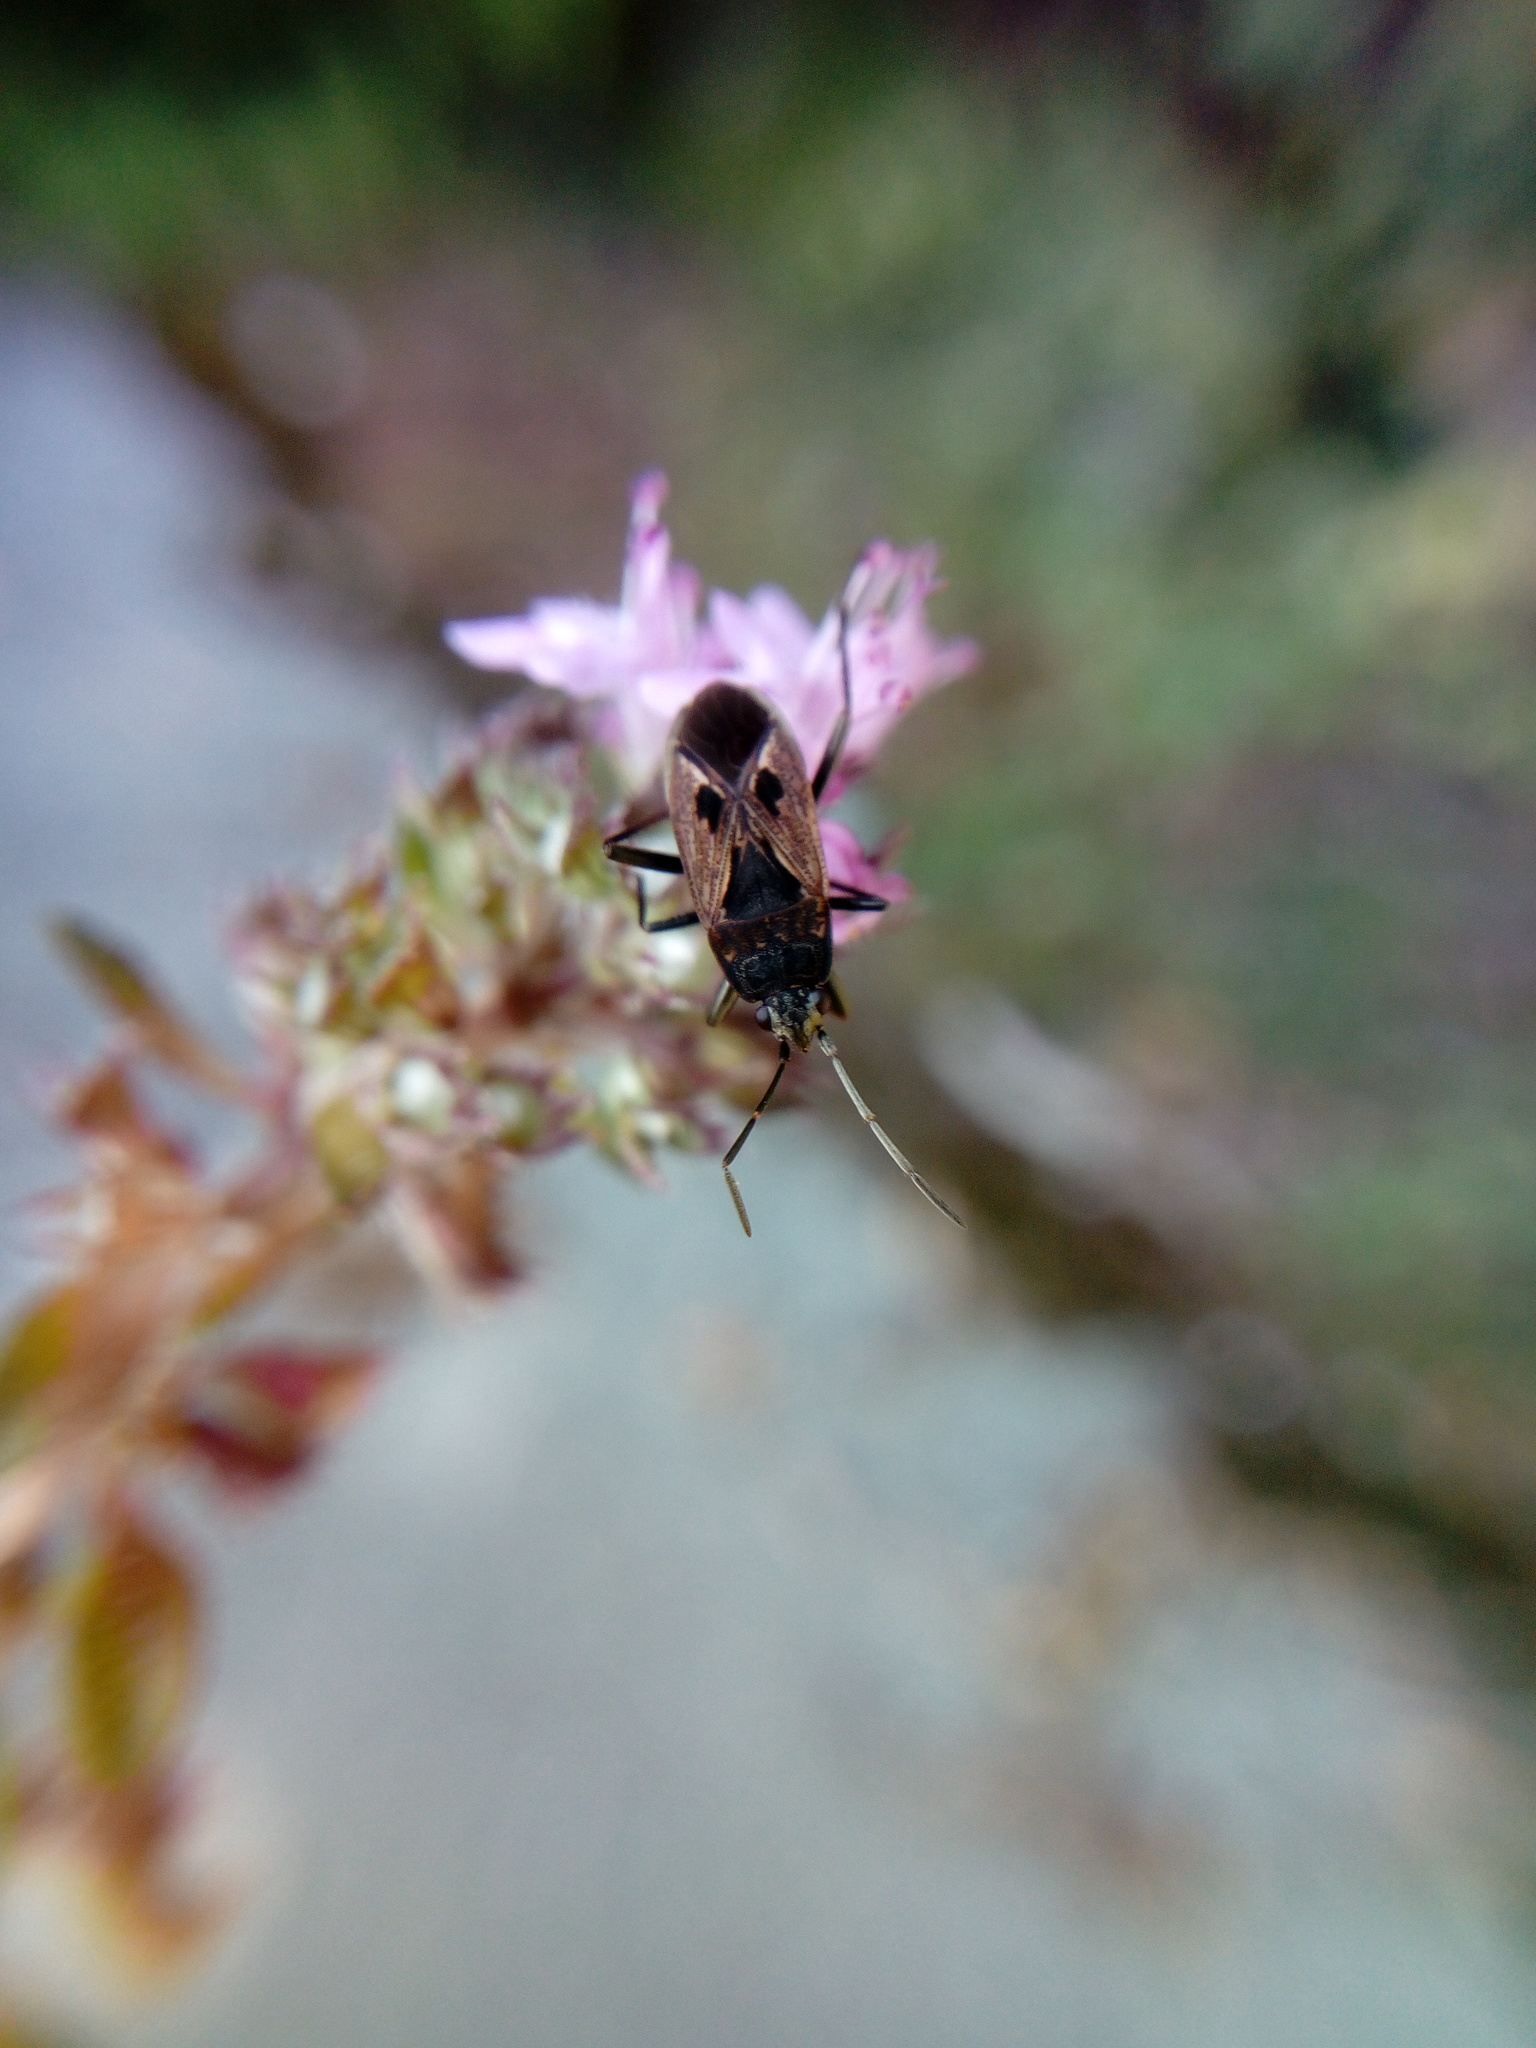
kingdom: Animalia
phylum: Arthropoda
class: Insecta
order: Hemiptera
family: Rhyparochromidae
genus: Rhyparochromus
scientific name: Rhyparochromus pini
